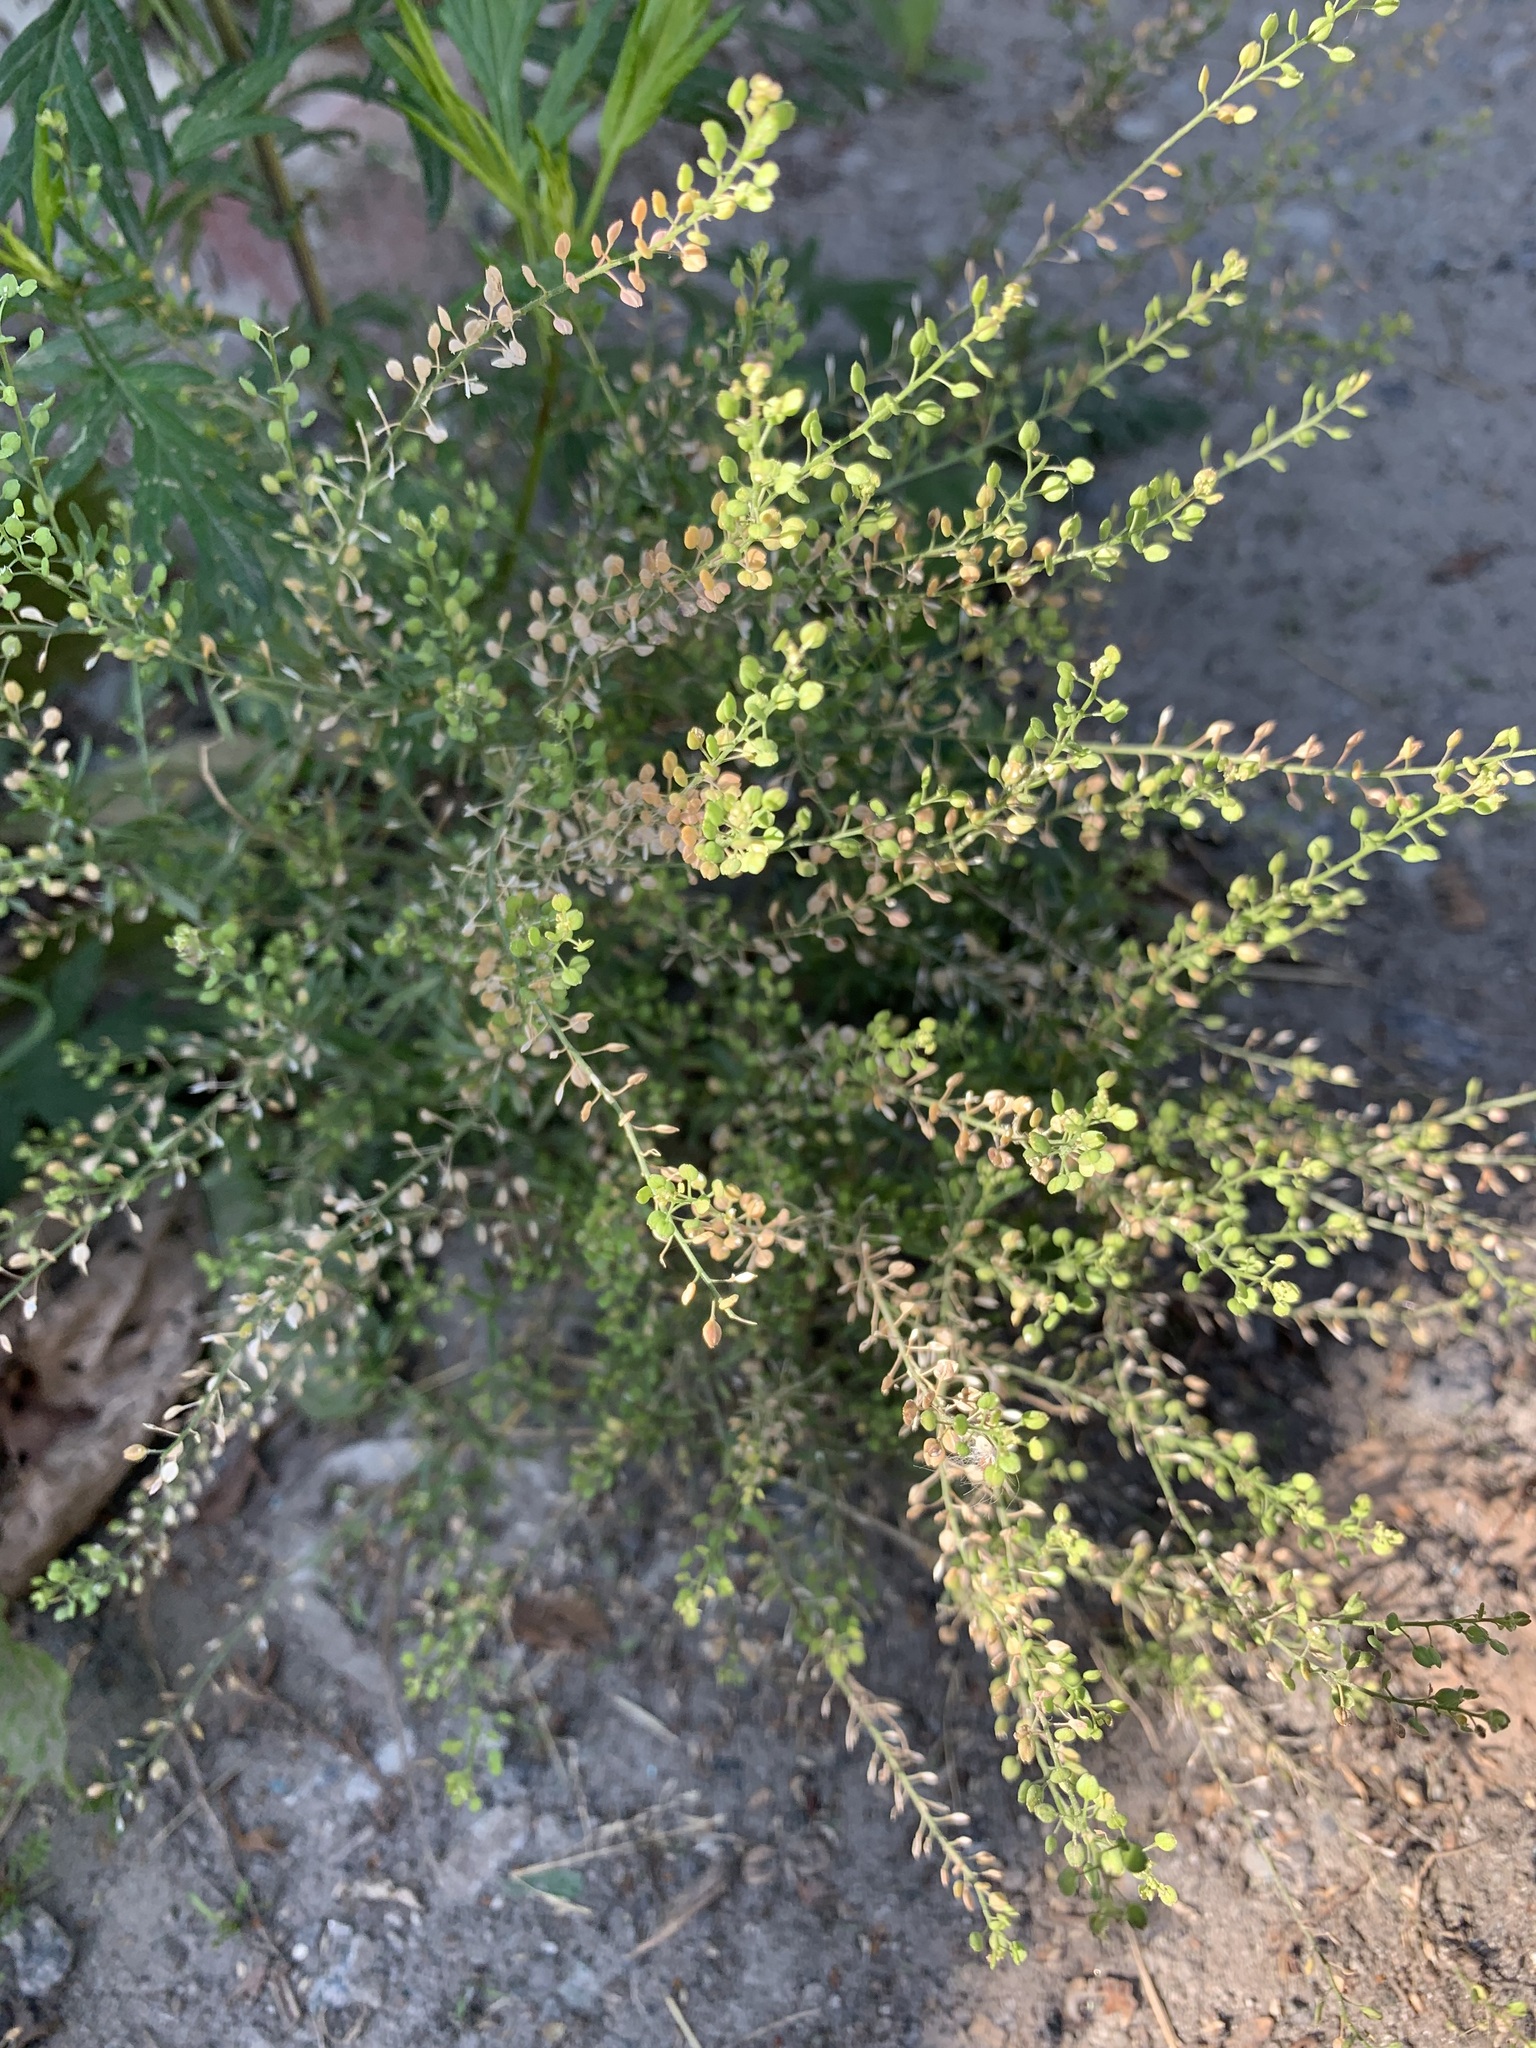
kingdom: Plantae
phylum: Tracheophyta
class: Magnoliopsida
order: Brassicales
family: Brassicaceae
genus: Lepidium
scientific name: Lepidium ruderale
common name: Narrow-leaved pepperwort
